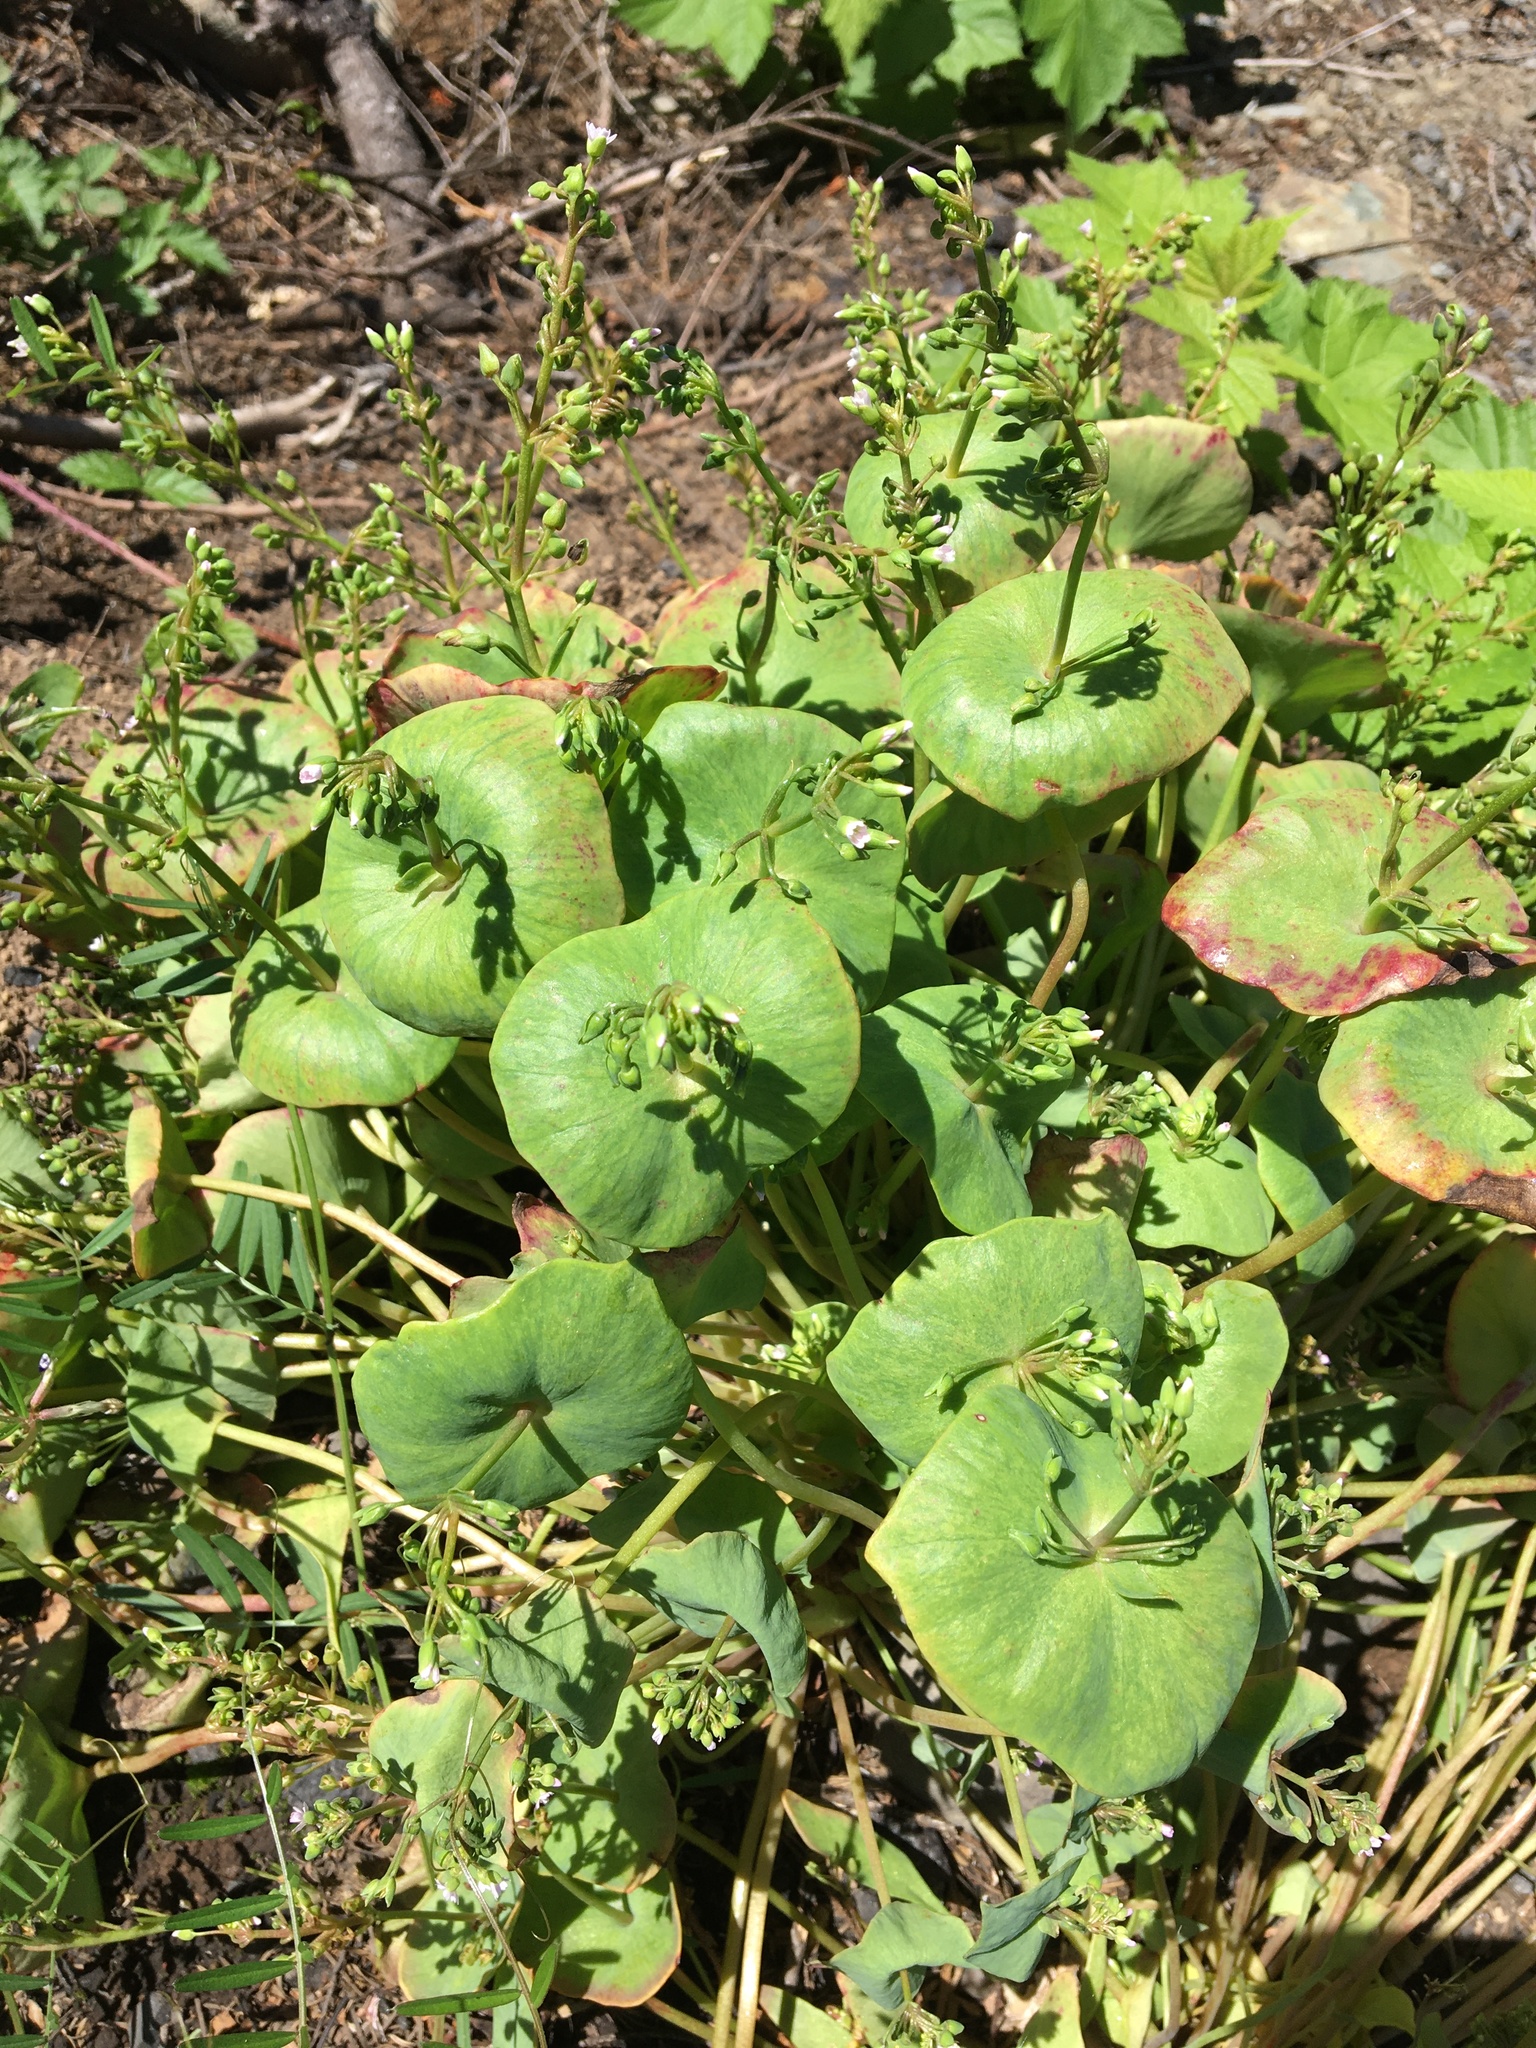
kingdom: Plantae
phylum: Tracheophyta
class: Magnoliopsida
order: Caryophyllales
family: Montiaceae
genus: Claytonia
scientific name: Claytonia perfoliata
